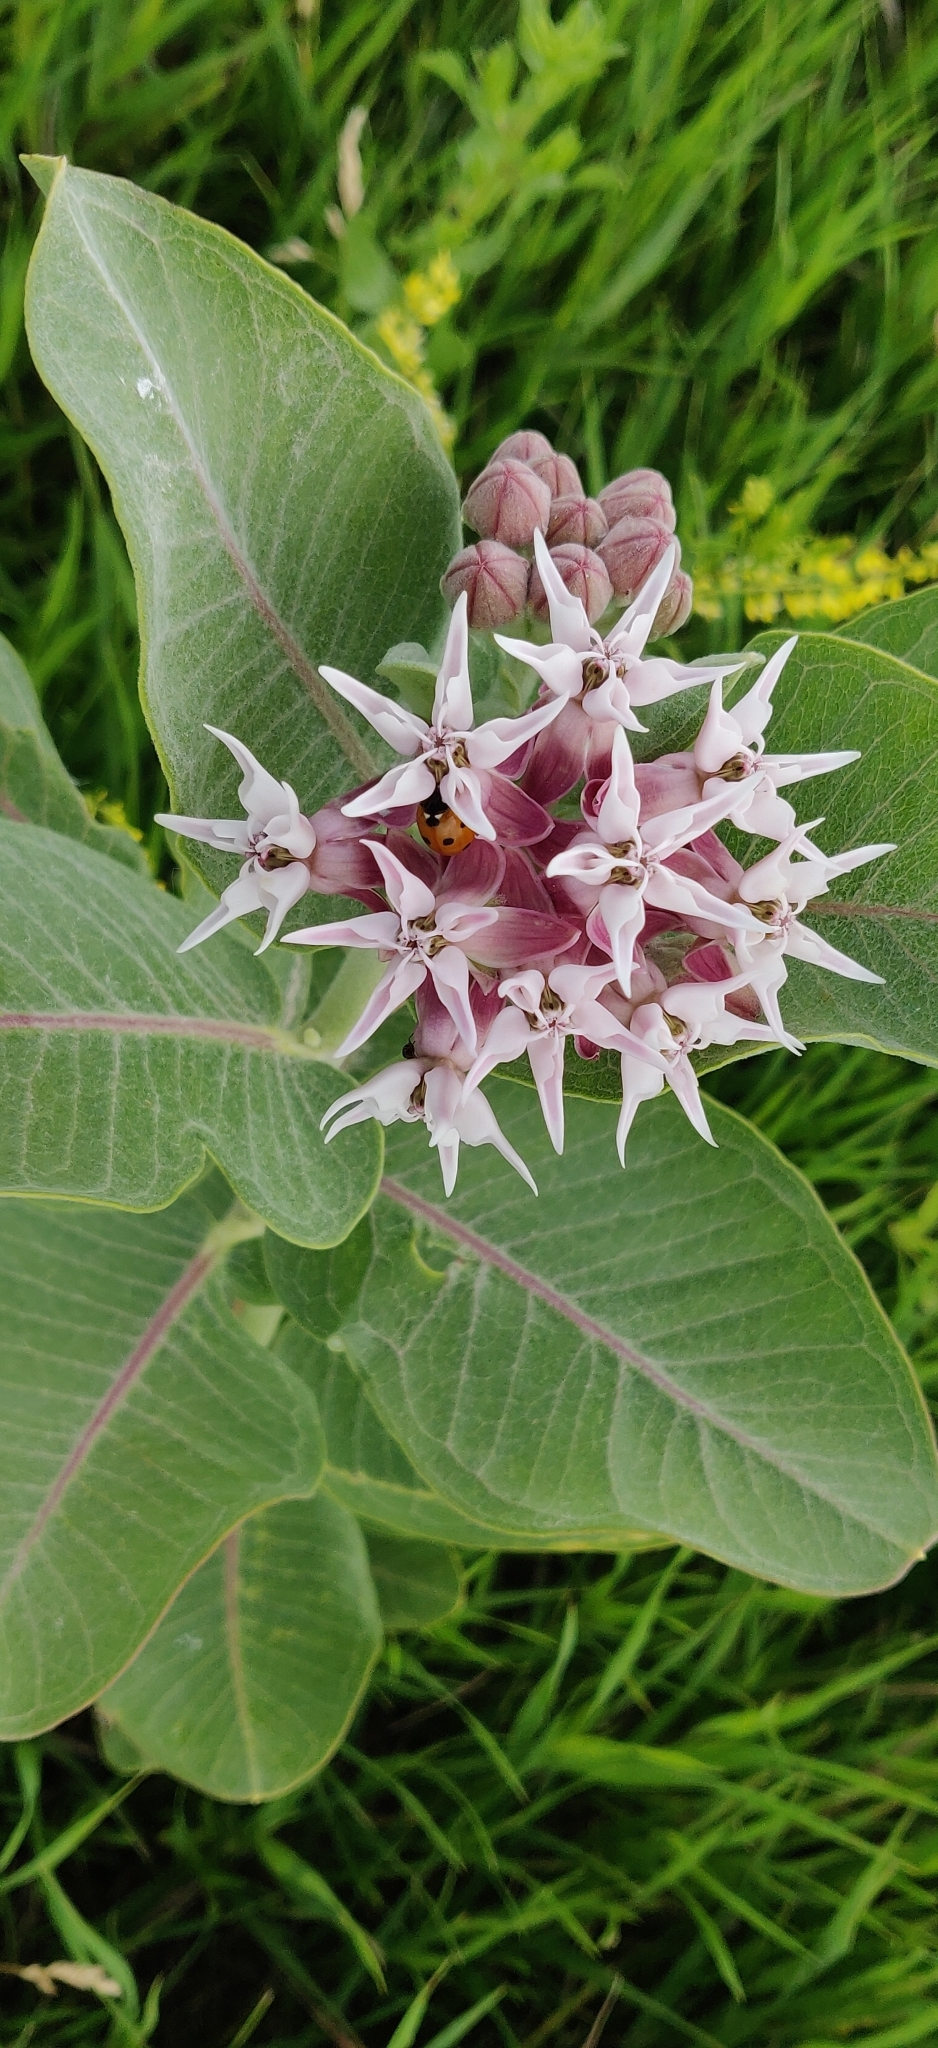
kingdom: Plantae
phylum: Tracheophyta
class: Magnoliopsida
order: Gentianales
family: Apocynaceae
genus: Asclepias
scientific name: Asclepias speciosa
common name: Showy milkweed
